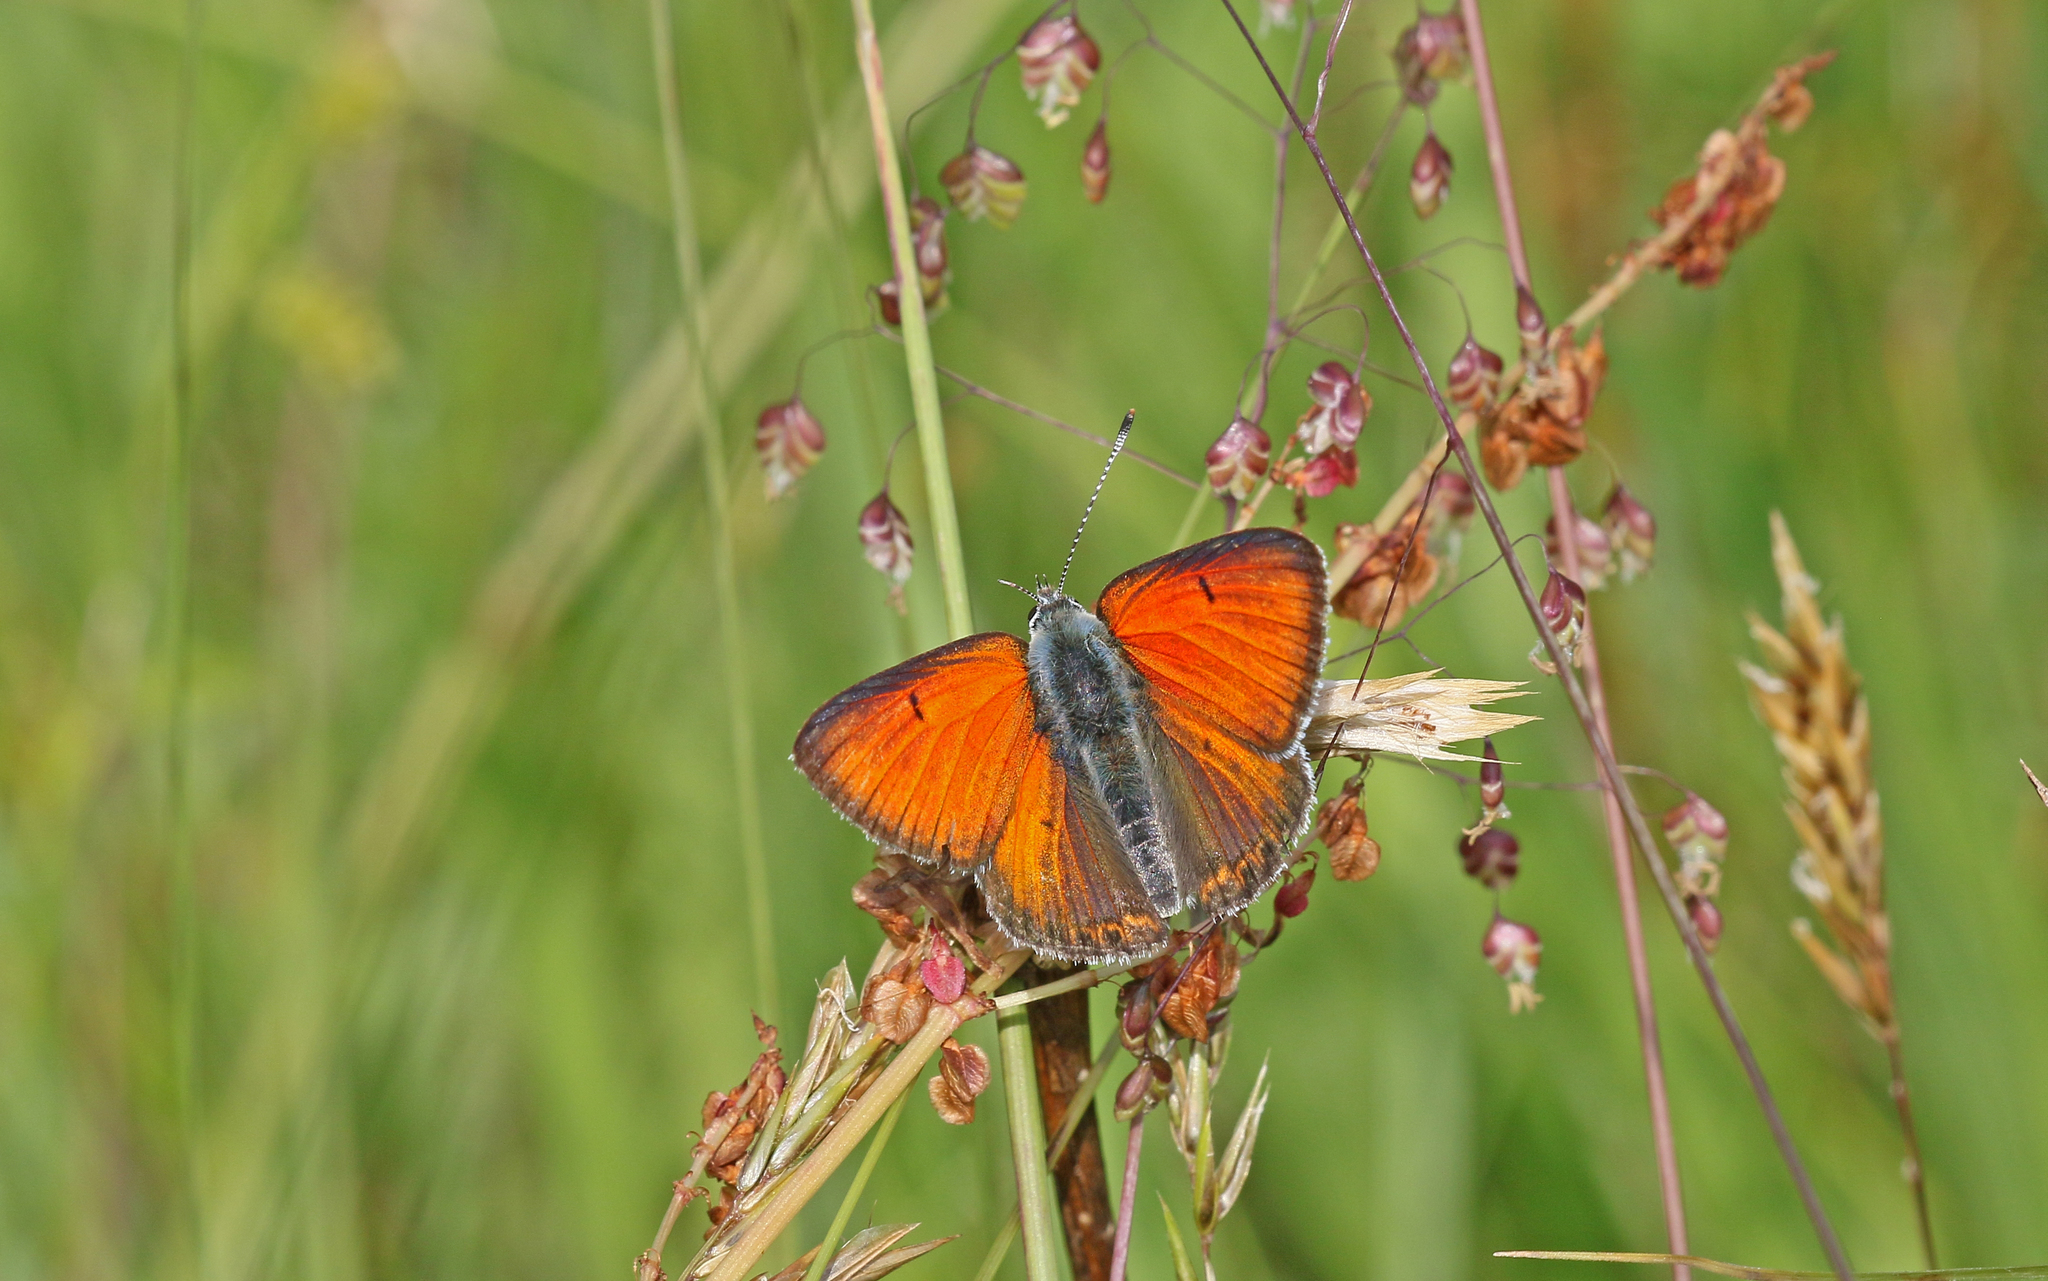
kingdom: Animalia
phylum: Arthropoda
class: Insecta
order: Lepidoptera
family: Lycaenidae
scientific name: Lycaenidae
